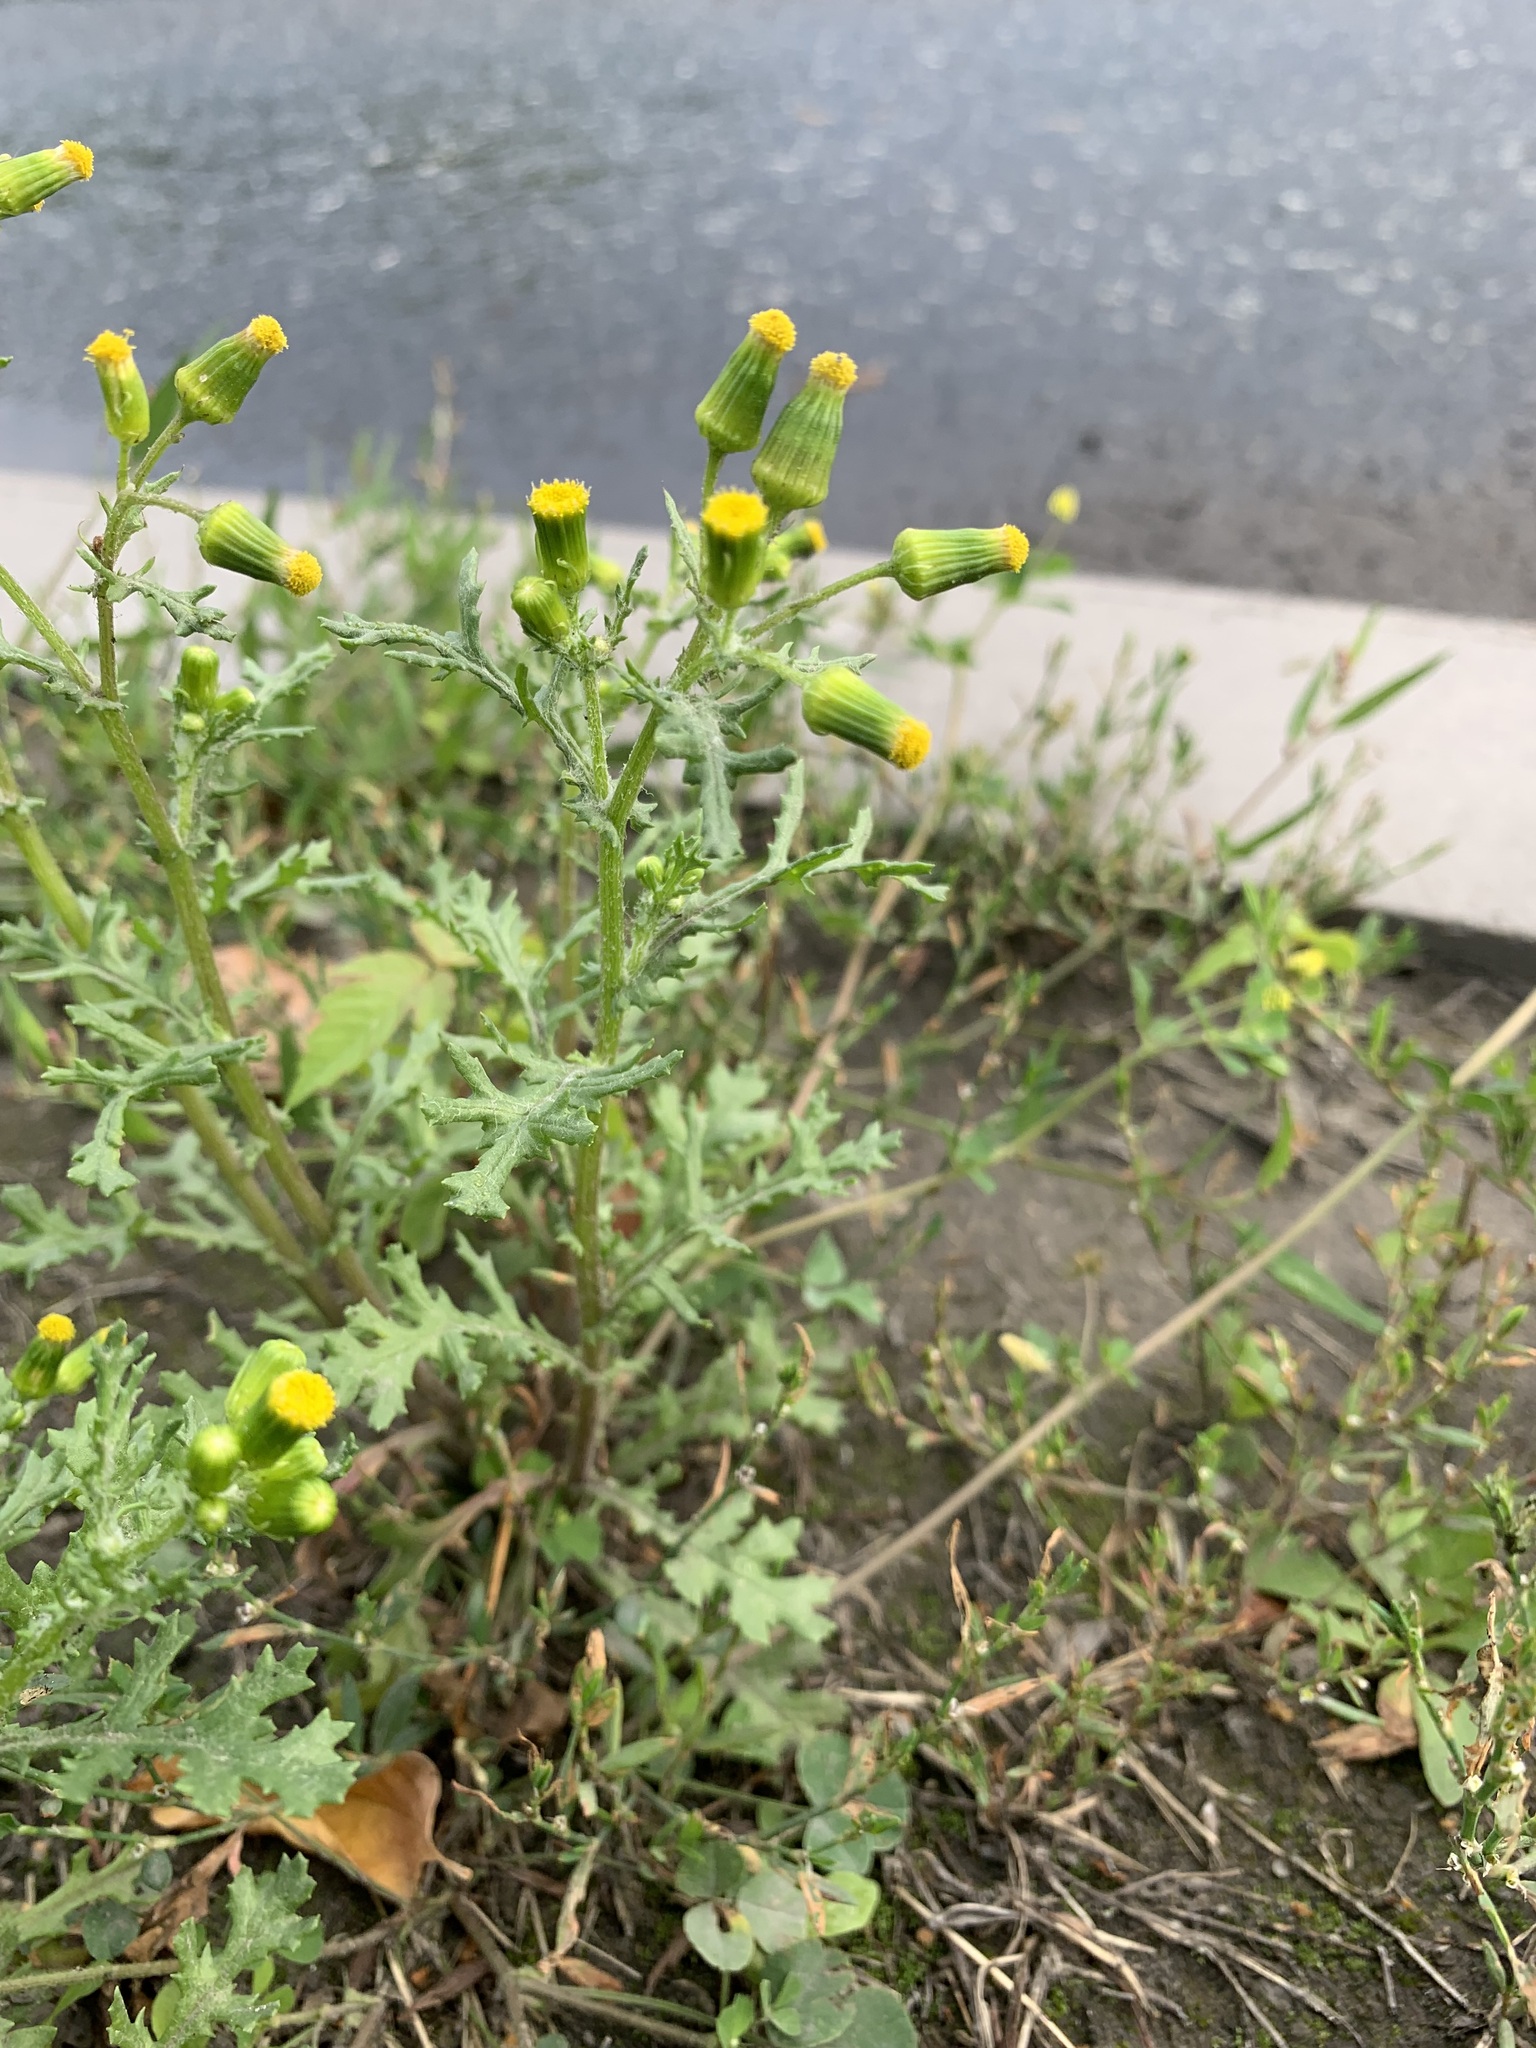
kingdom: Plantae
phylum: Tracheophyta
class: Magnoliopsida
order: Asterales
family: Asteraceae
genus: Senecio
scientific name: Senecio vulgaris
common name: Old-man-in-the-spring
